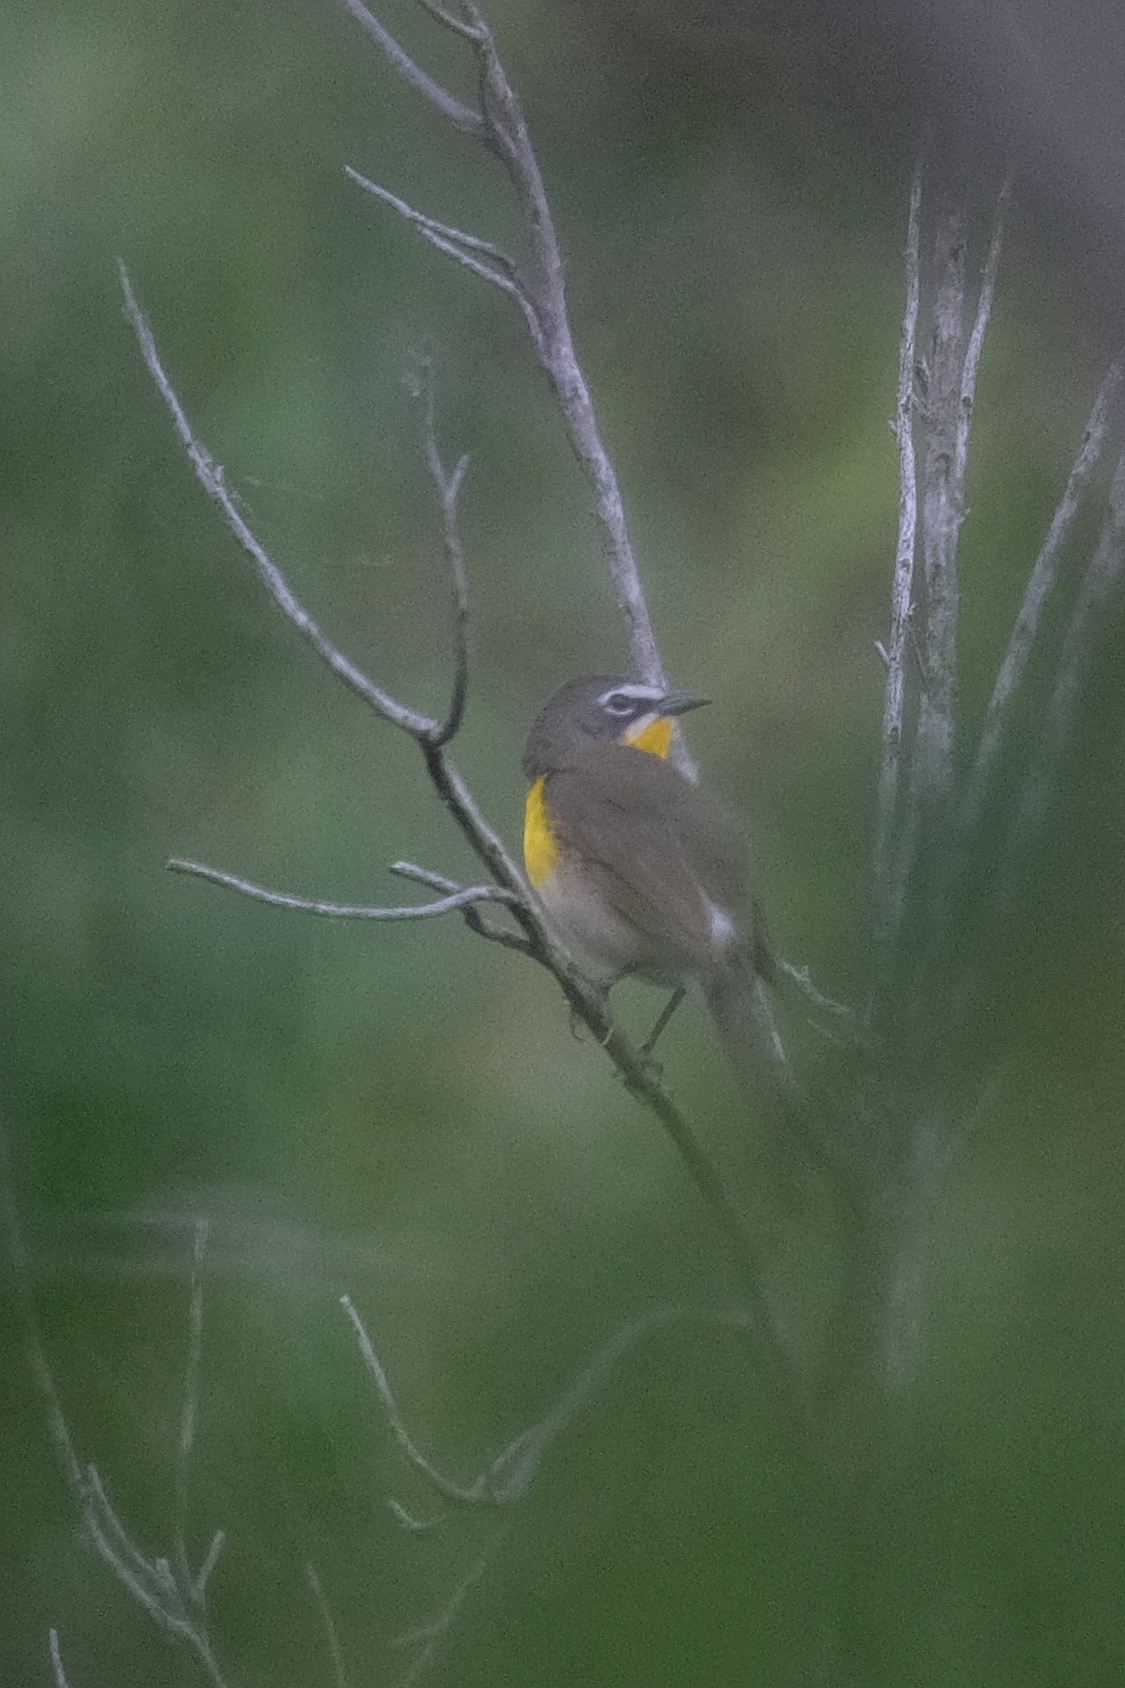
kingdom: Animalia
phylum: Chordata
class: Aves
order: Passeriformes
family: Parulidae
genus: Icteria
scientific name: Icteria virens
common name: Yellow-breasted chat
